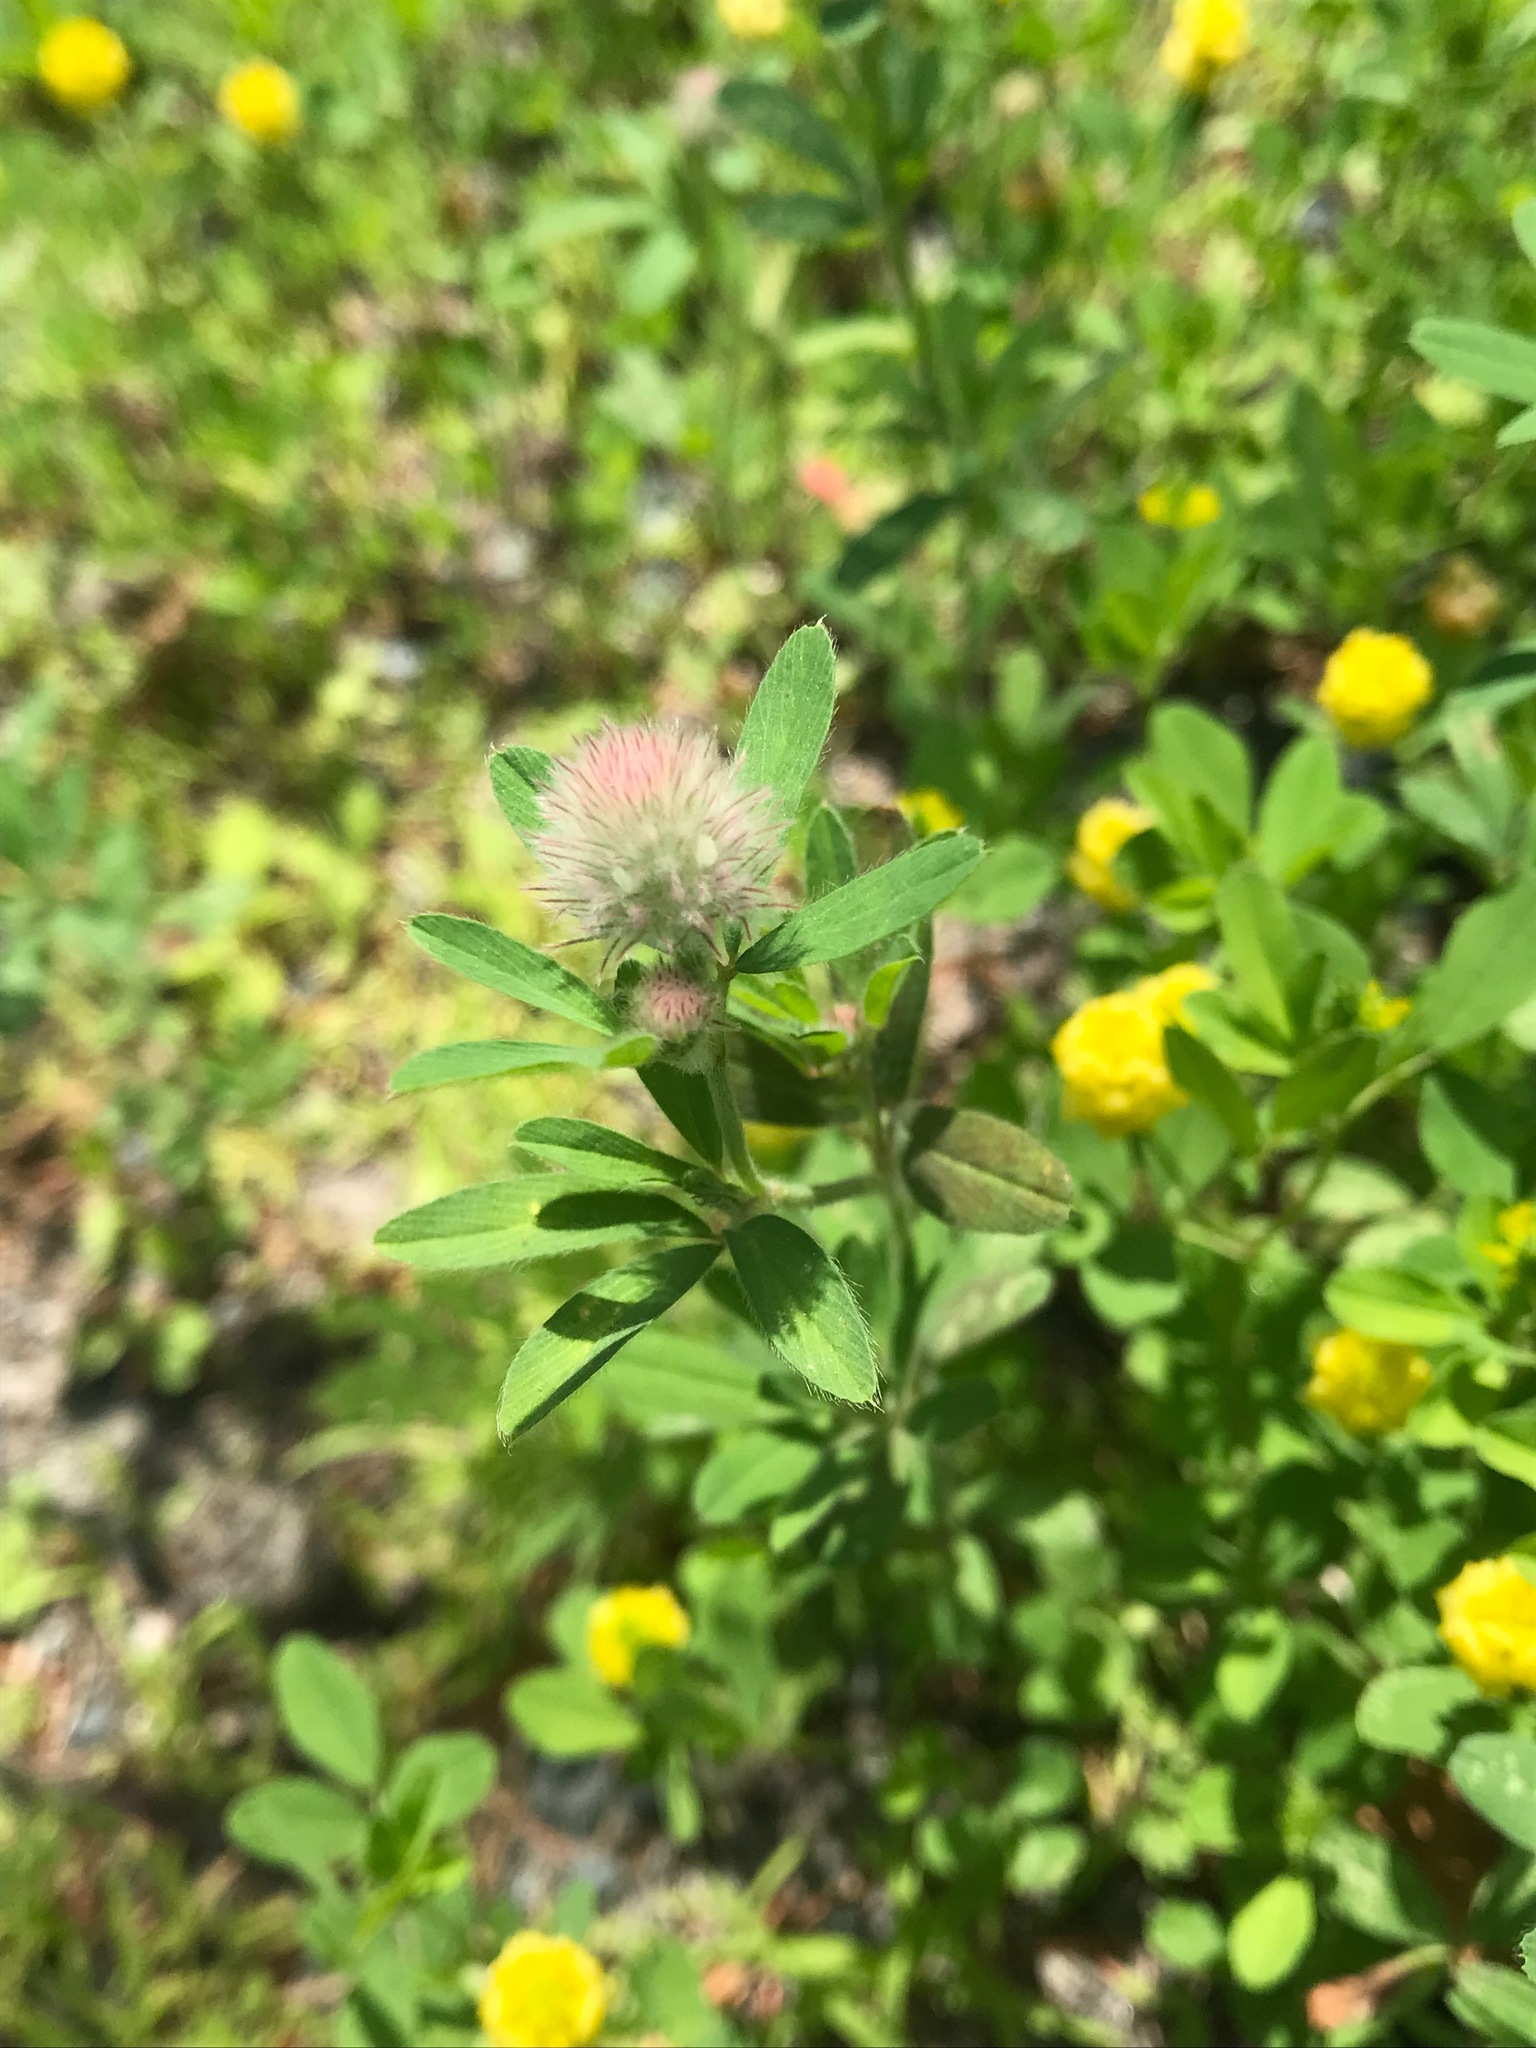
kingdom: Plantae
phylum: Tracheophyta
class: Magnoliopsida
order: Fabales
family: Fabaceae
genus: Trifolium
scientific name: Trifolium arvense
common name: Hare's-foot clover
